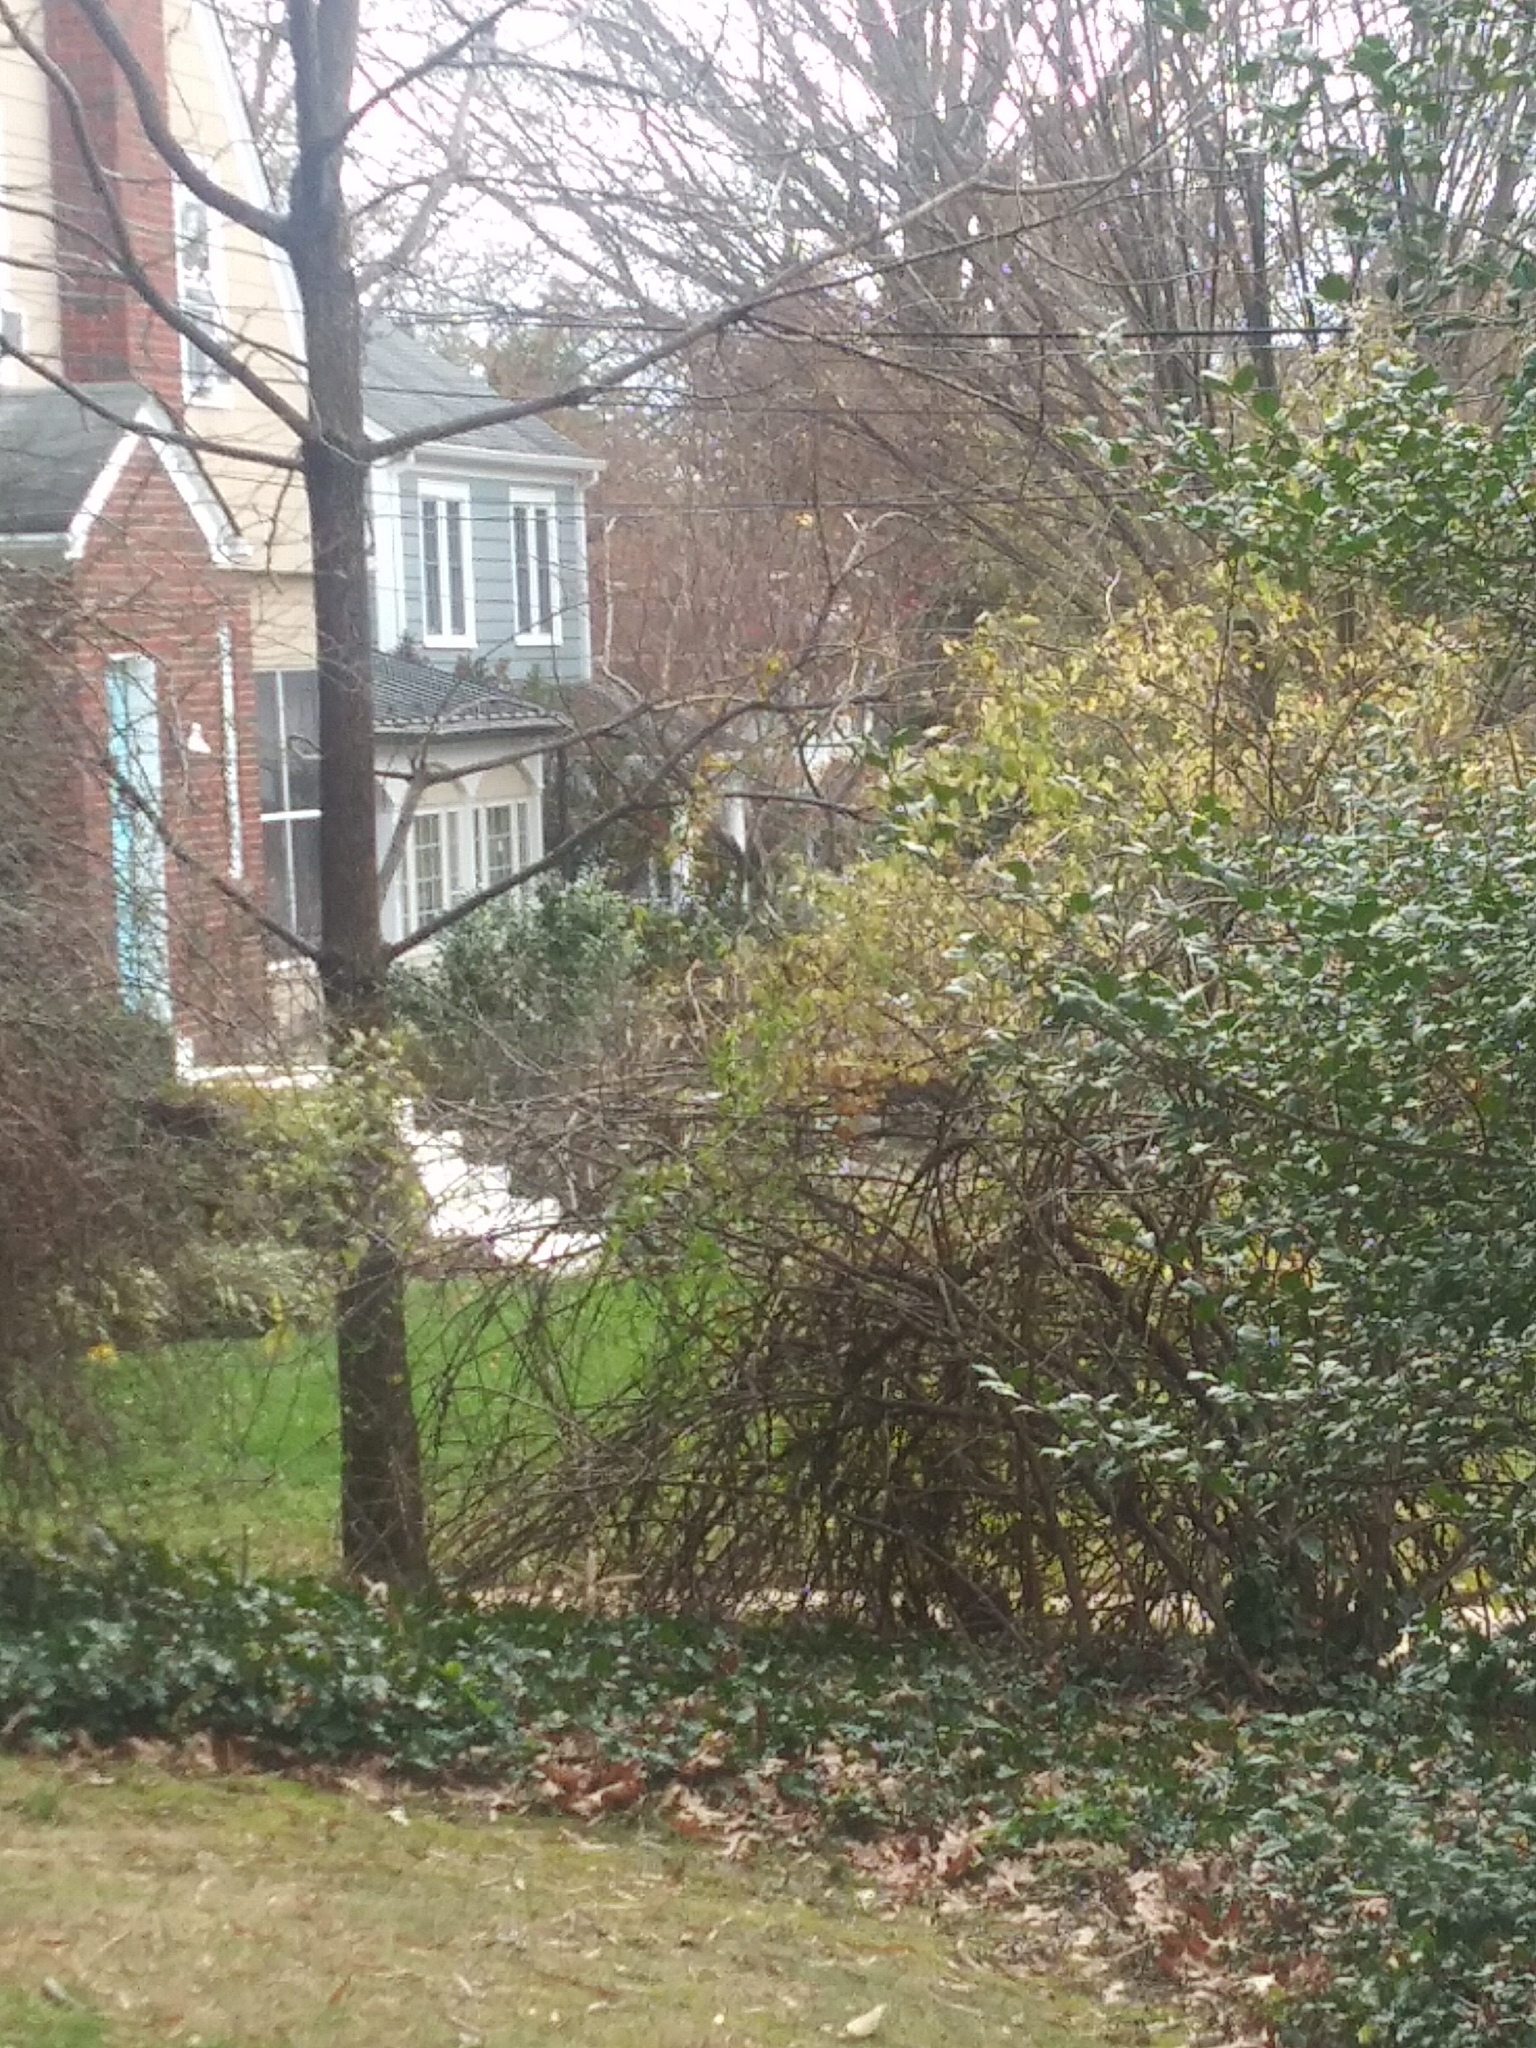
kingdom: Animalia
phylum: Chordata
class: Aves
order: Accipitriformes
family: Accipitridae
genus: Accipiter
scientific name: Accipiter cooperii
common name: Cooper's hawk
